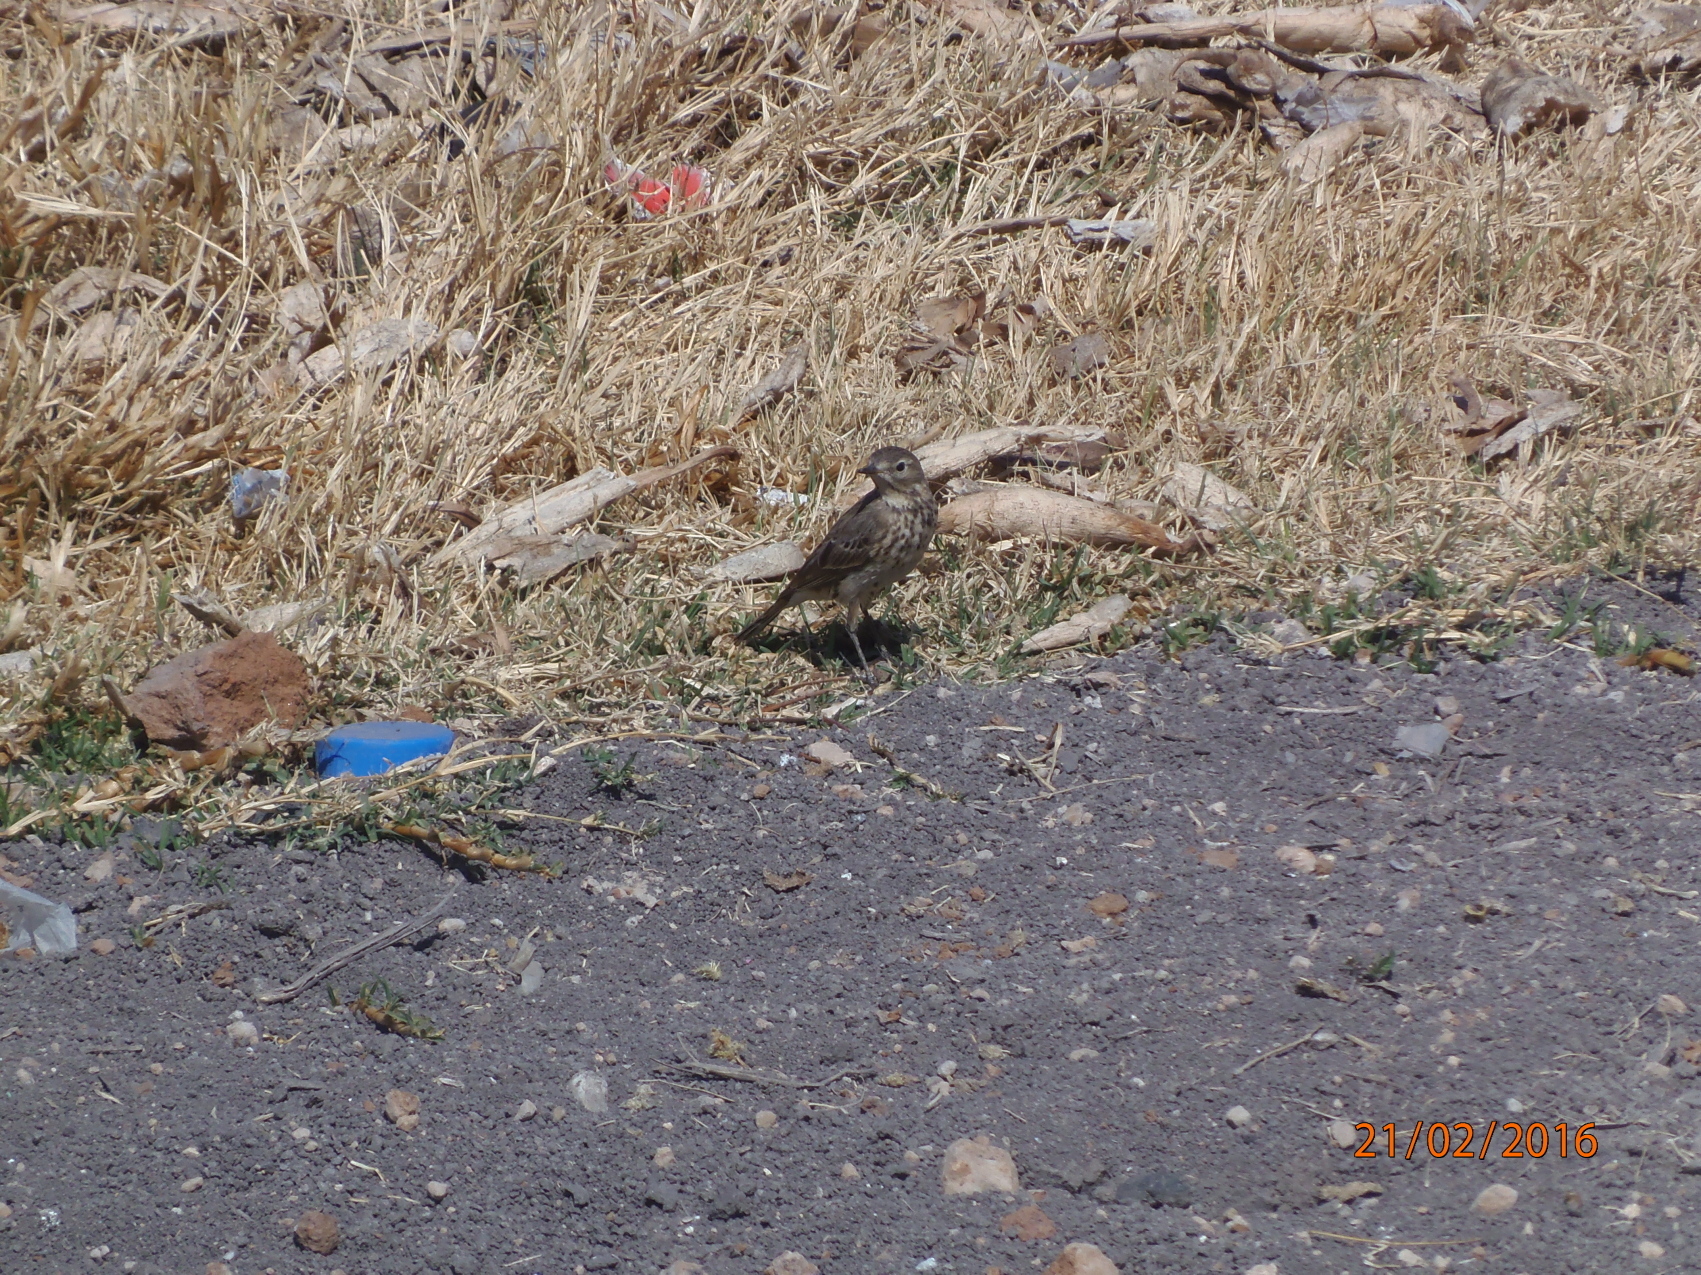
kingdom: Animalia
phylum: Chordata
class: Aves
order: Passeriformes
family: Motacillidae
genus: Anthus
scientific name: Anthus rubescens
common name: Buff-bellied pipit
